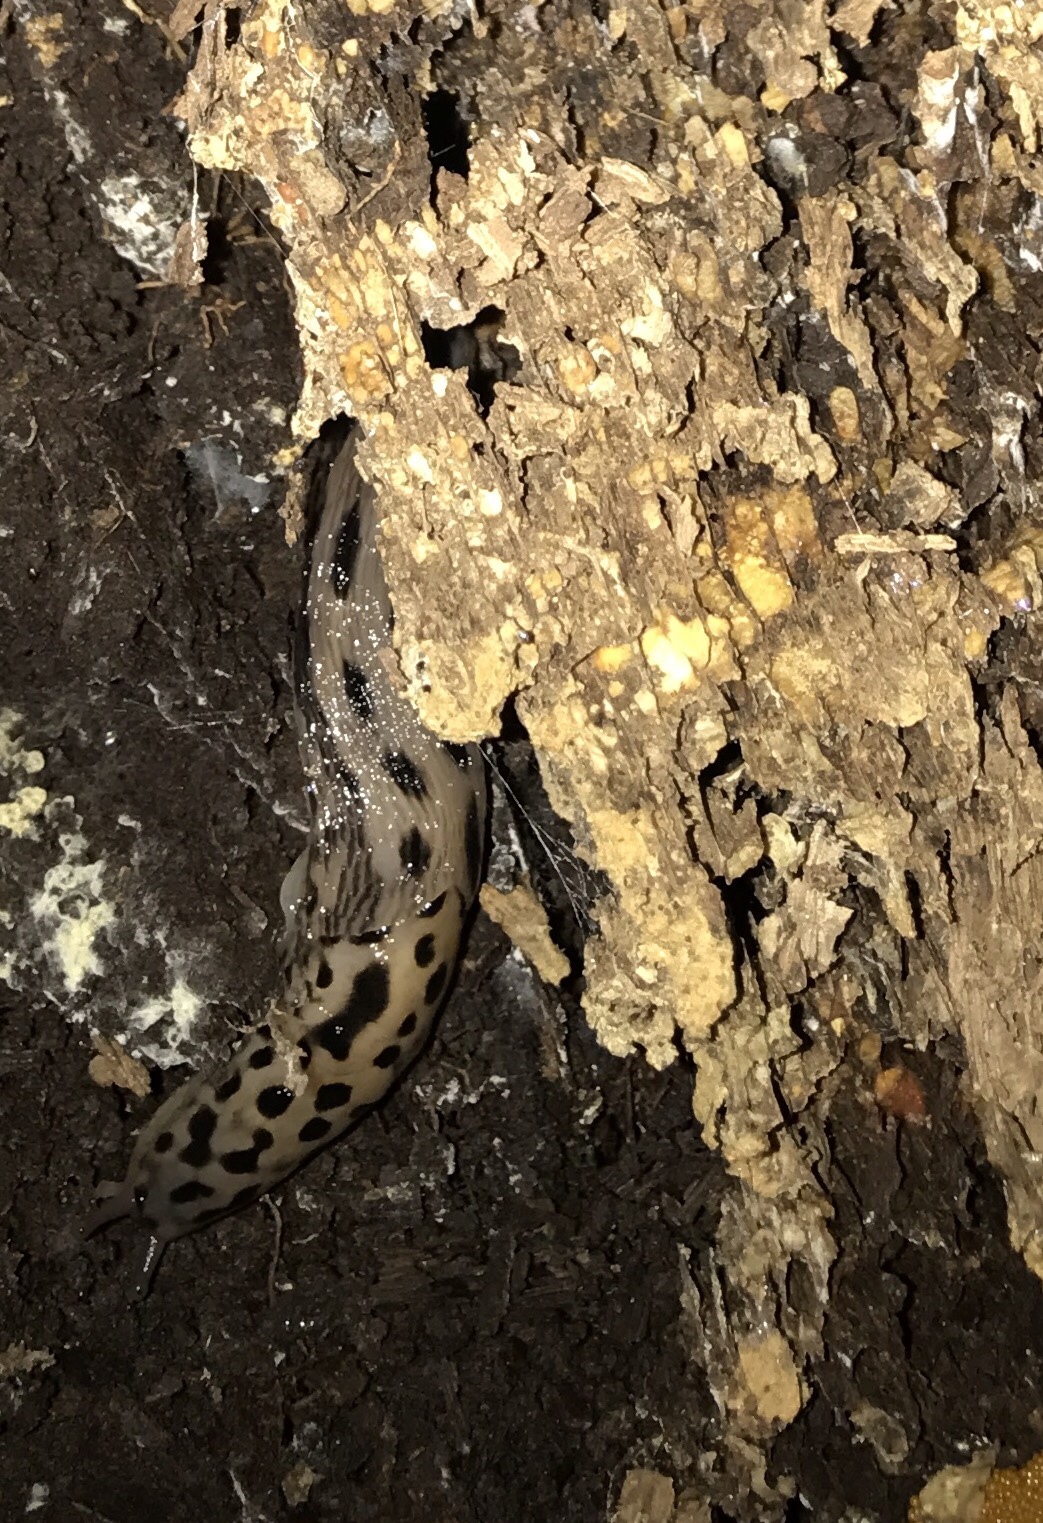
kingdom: Animalia
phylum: Mollusca
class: Gastropoda
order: Stylommatophora
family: Limacidae
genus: Limax
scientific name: Limax maximus
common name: Great grey slug
